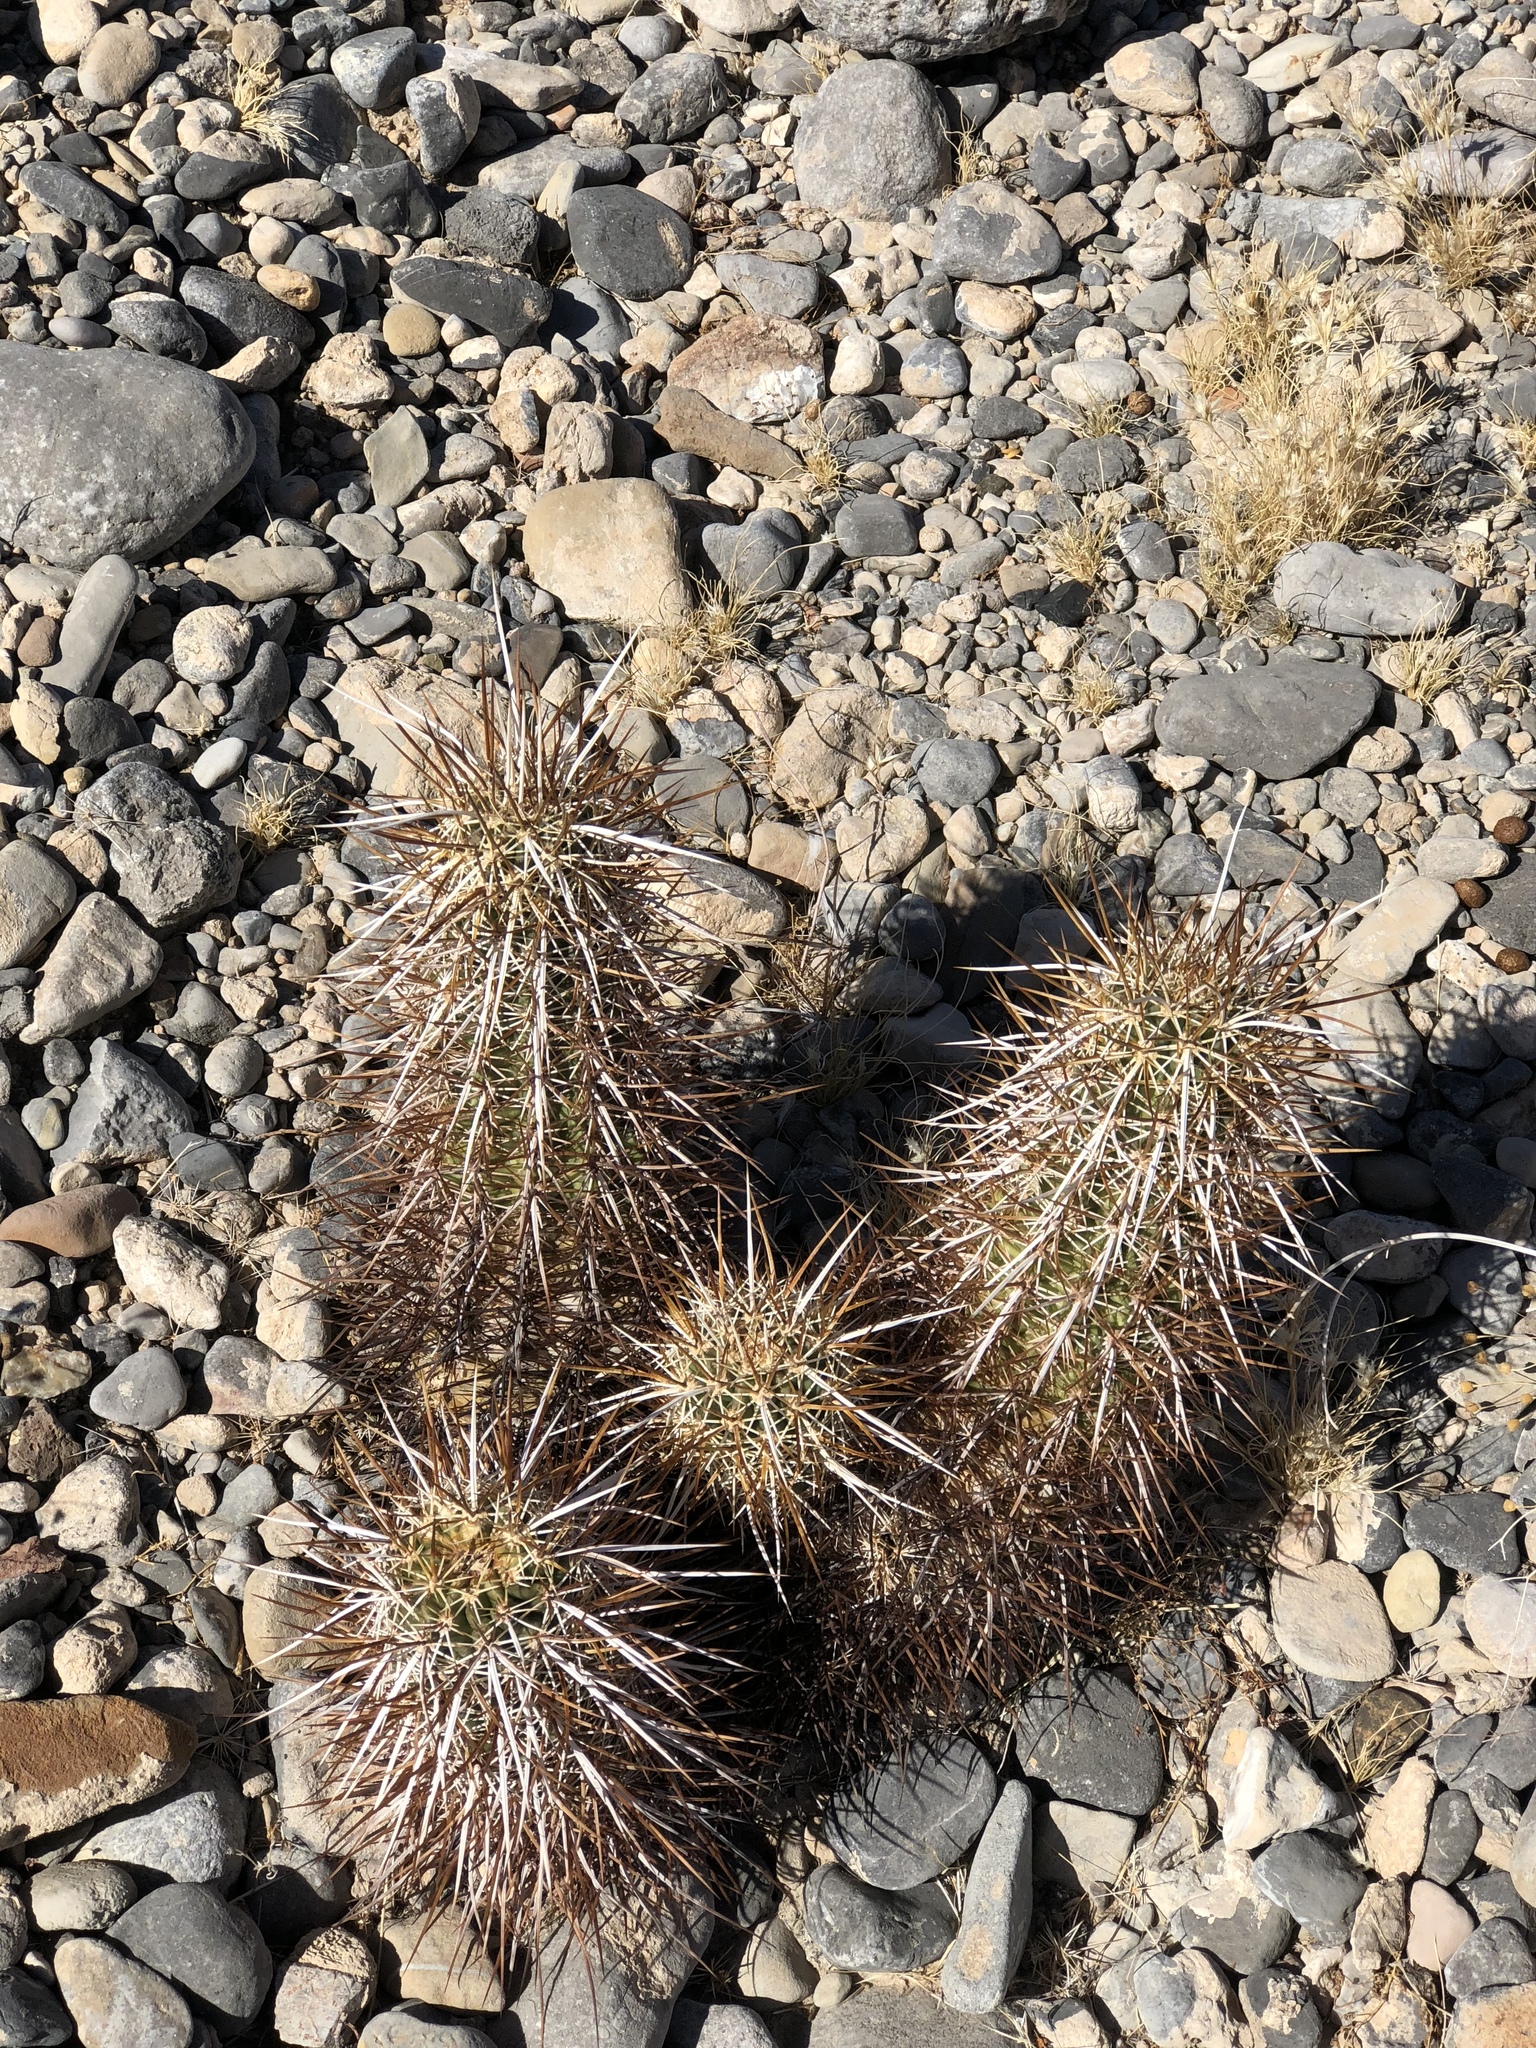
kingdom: Plantae
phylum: Tracheophyta
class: Magnoliopsida
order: Caryophyllales
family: Cactaceae
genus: Echinocereus
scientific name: Echinocereus engelmannii
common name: Engelmann's hedgehog cactus
